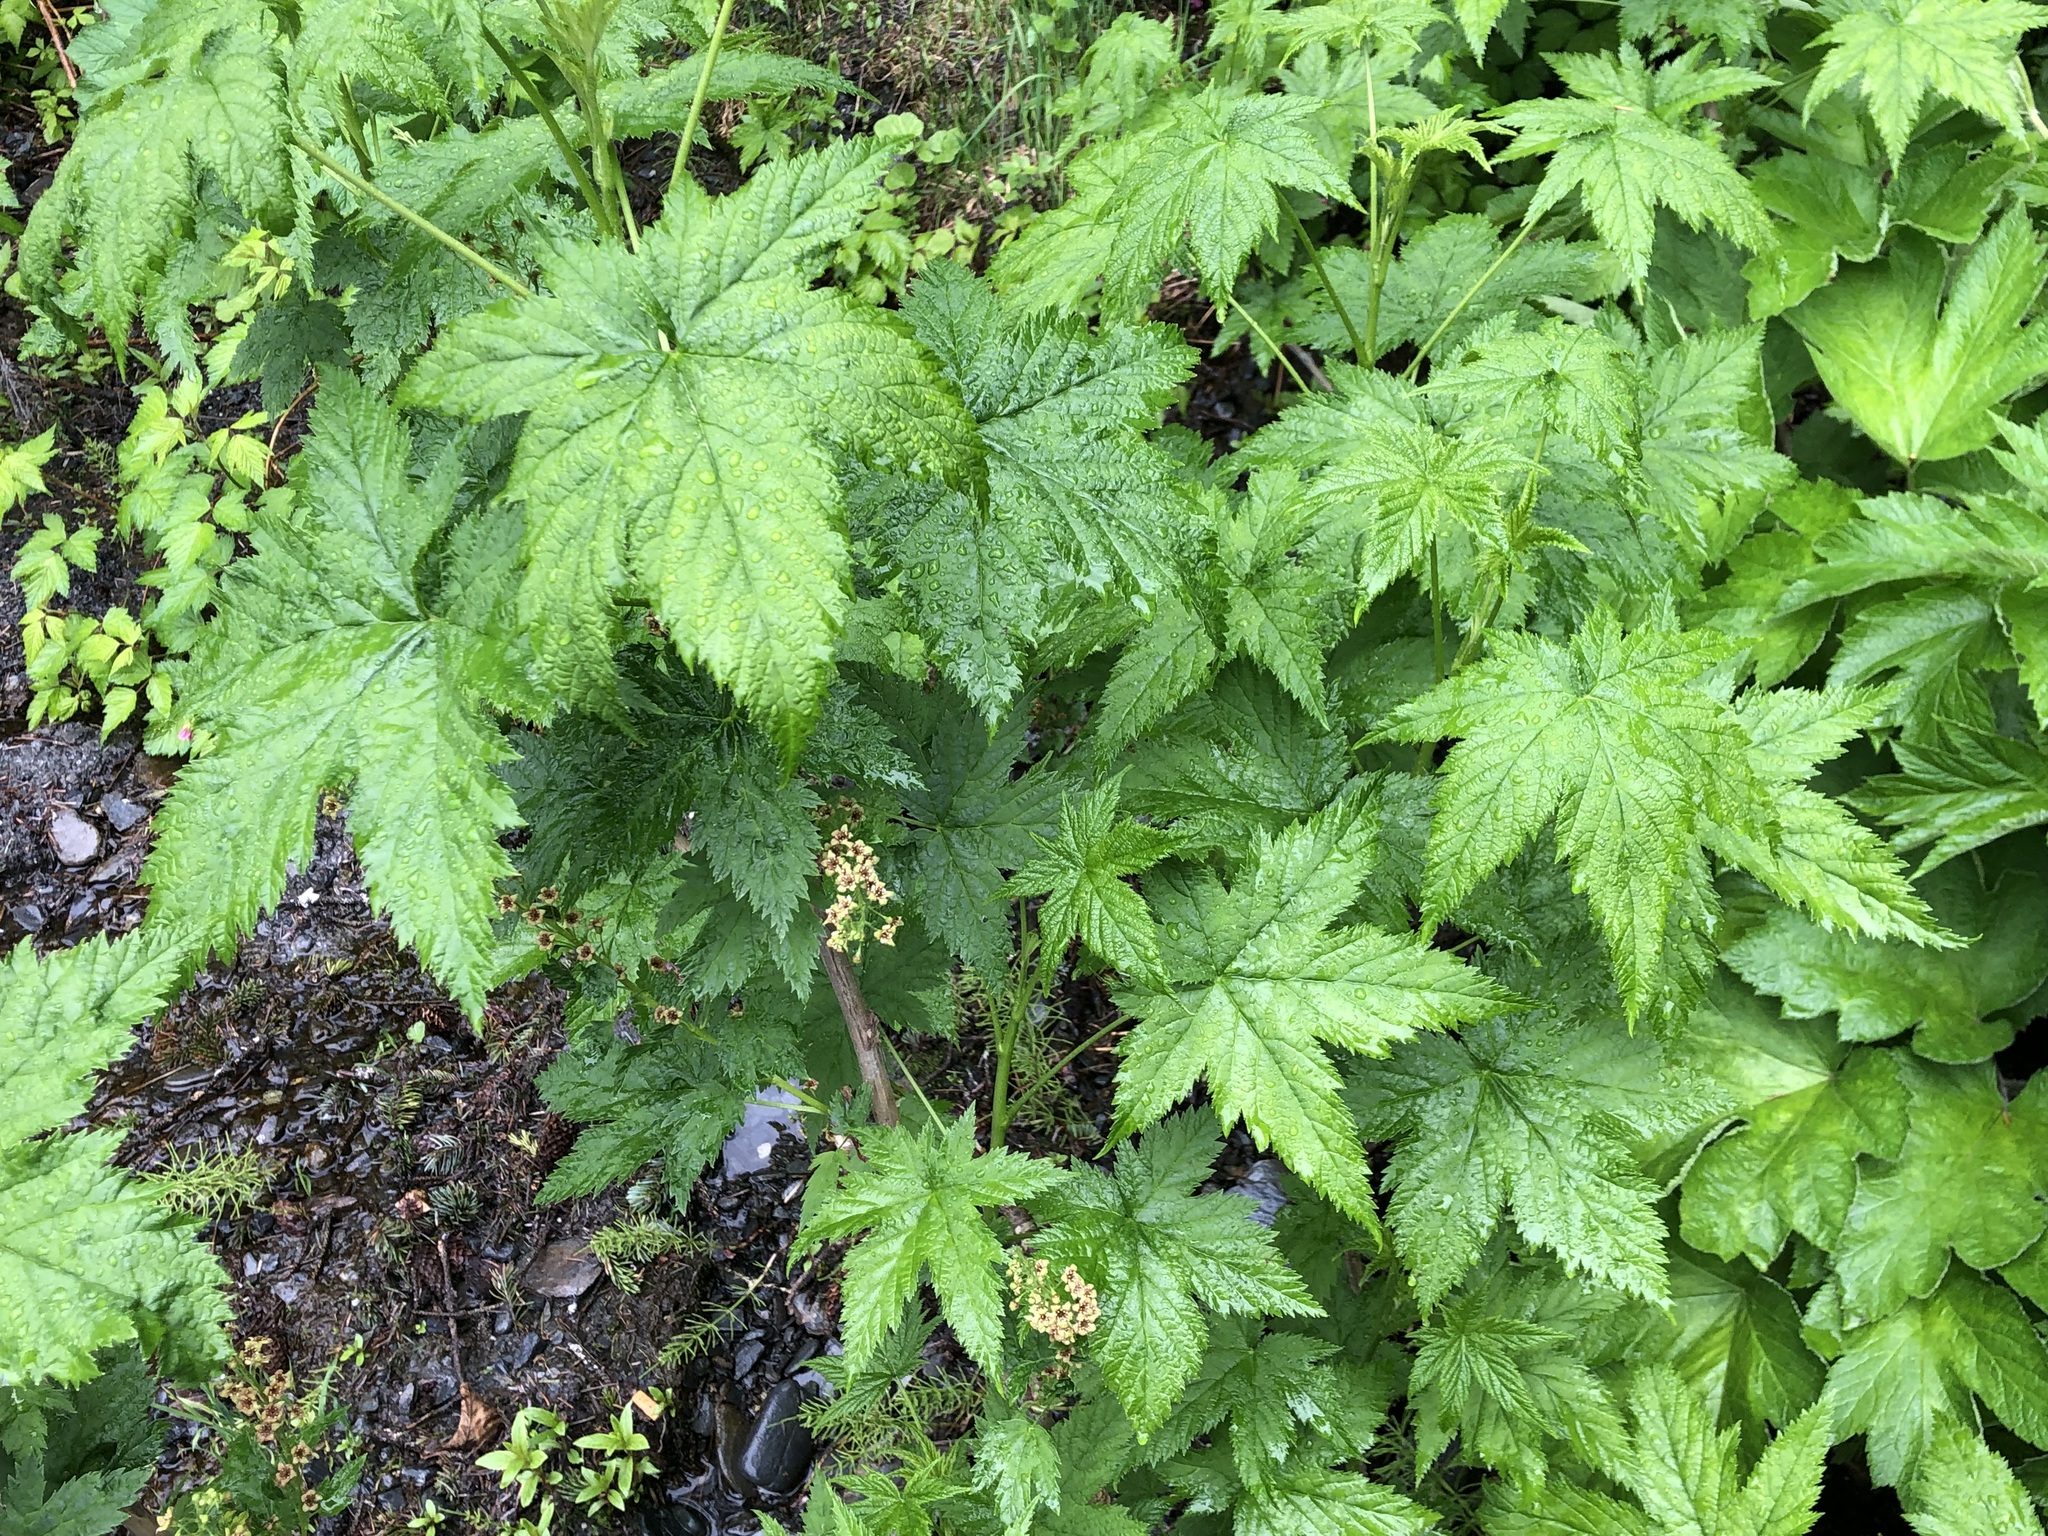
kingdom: Plantae
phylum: Tracheophyta
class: Magnoliopsida
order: Saxifragales
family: Grossulariaceae
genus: Ribes
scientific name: Ribes bracteosum
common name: California black currant
